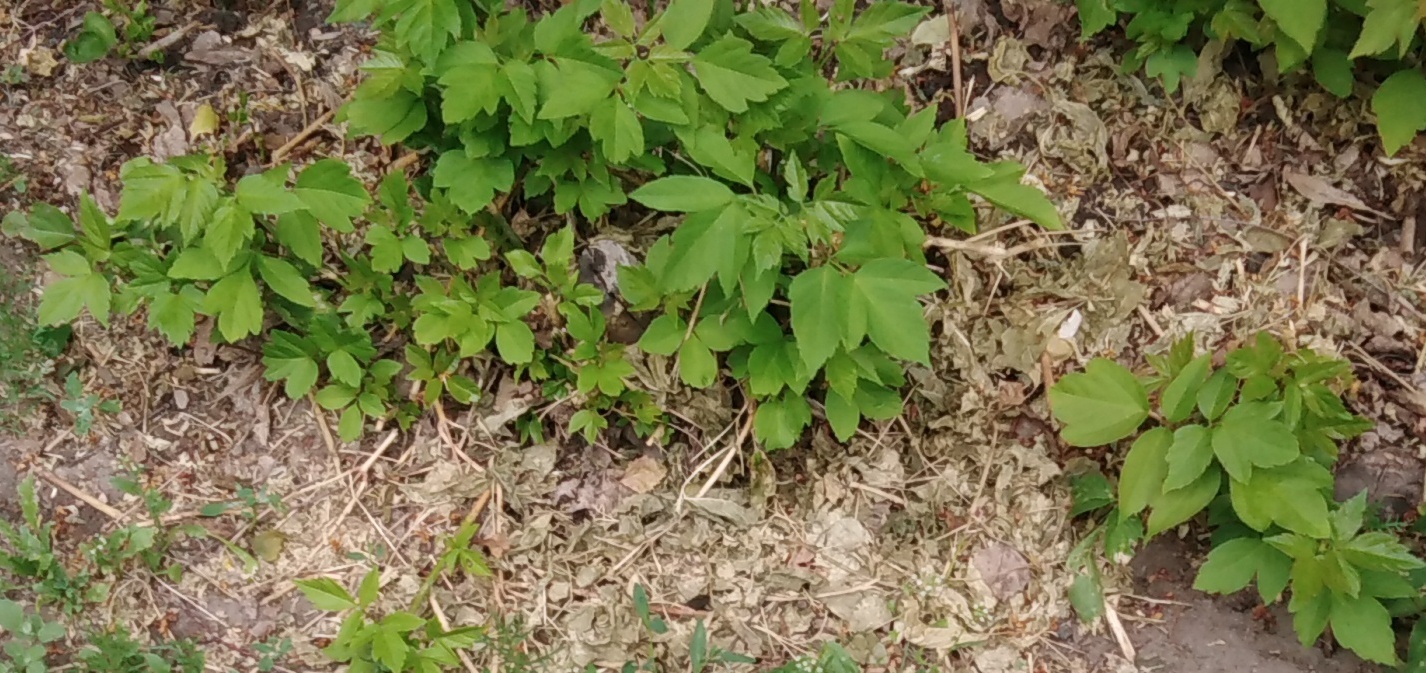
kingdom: Plantae
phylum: Tracheophyta
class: Magnoliopsida
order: Sapindales
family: Sapindaceae
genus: Acer
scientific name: Acer negundo
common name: Ashleaf maple
